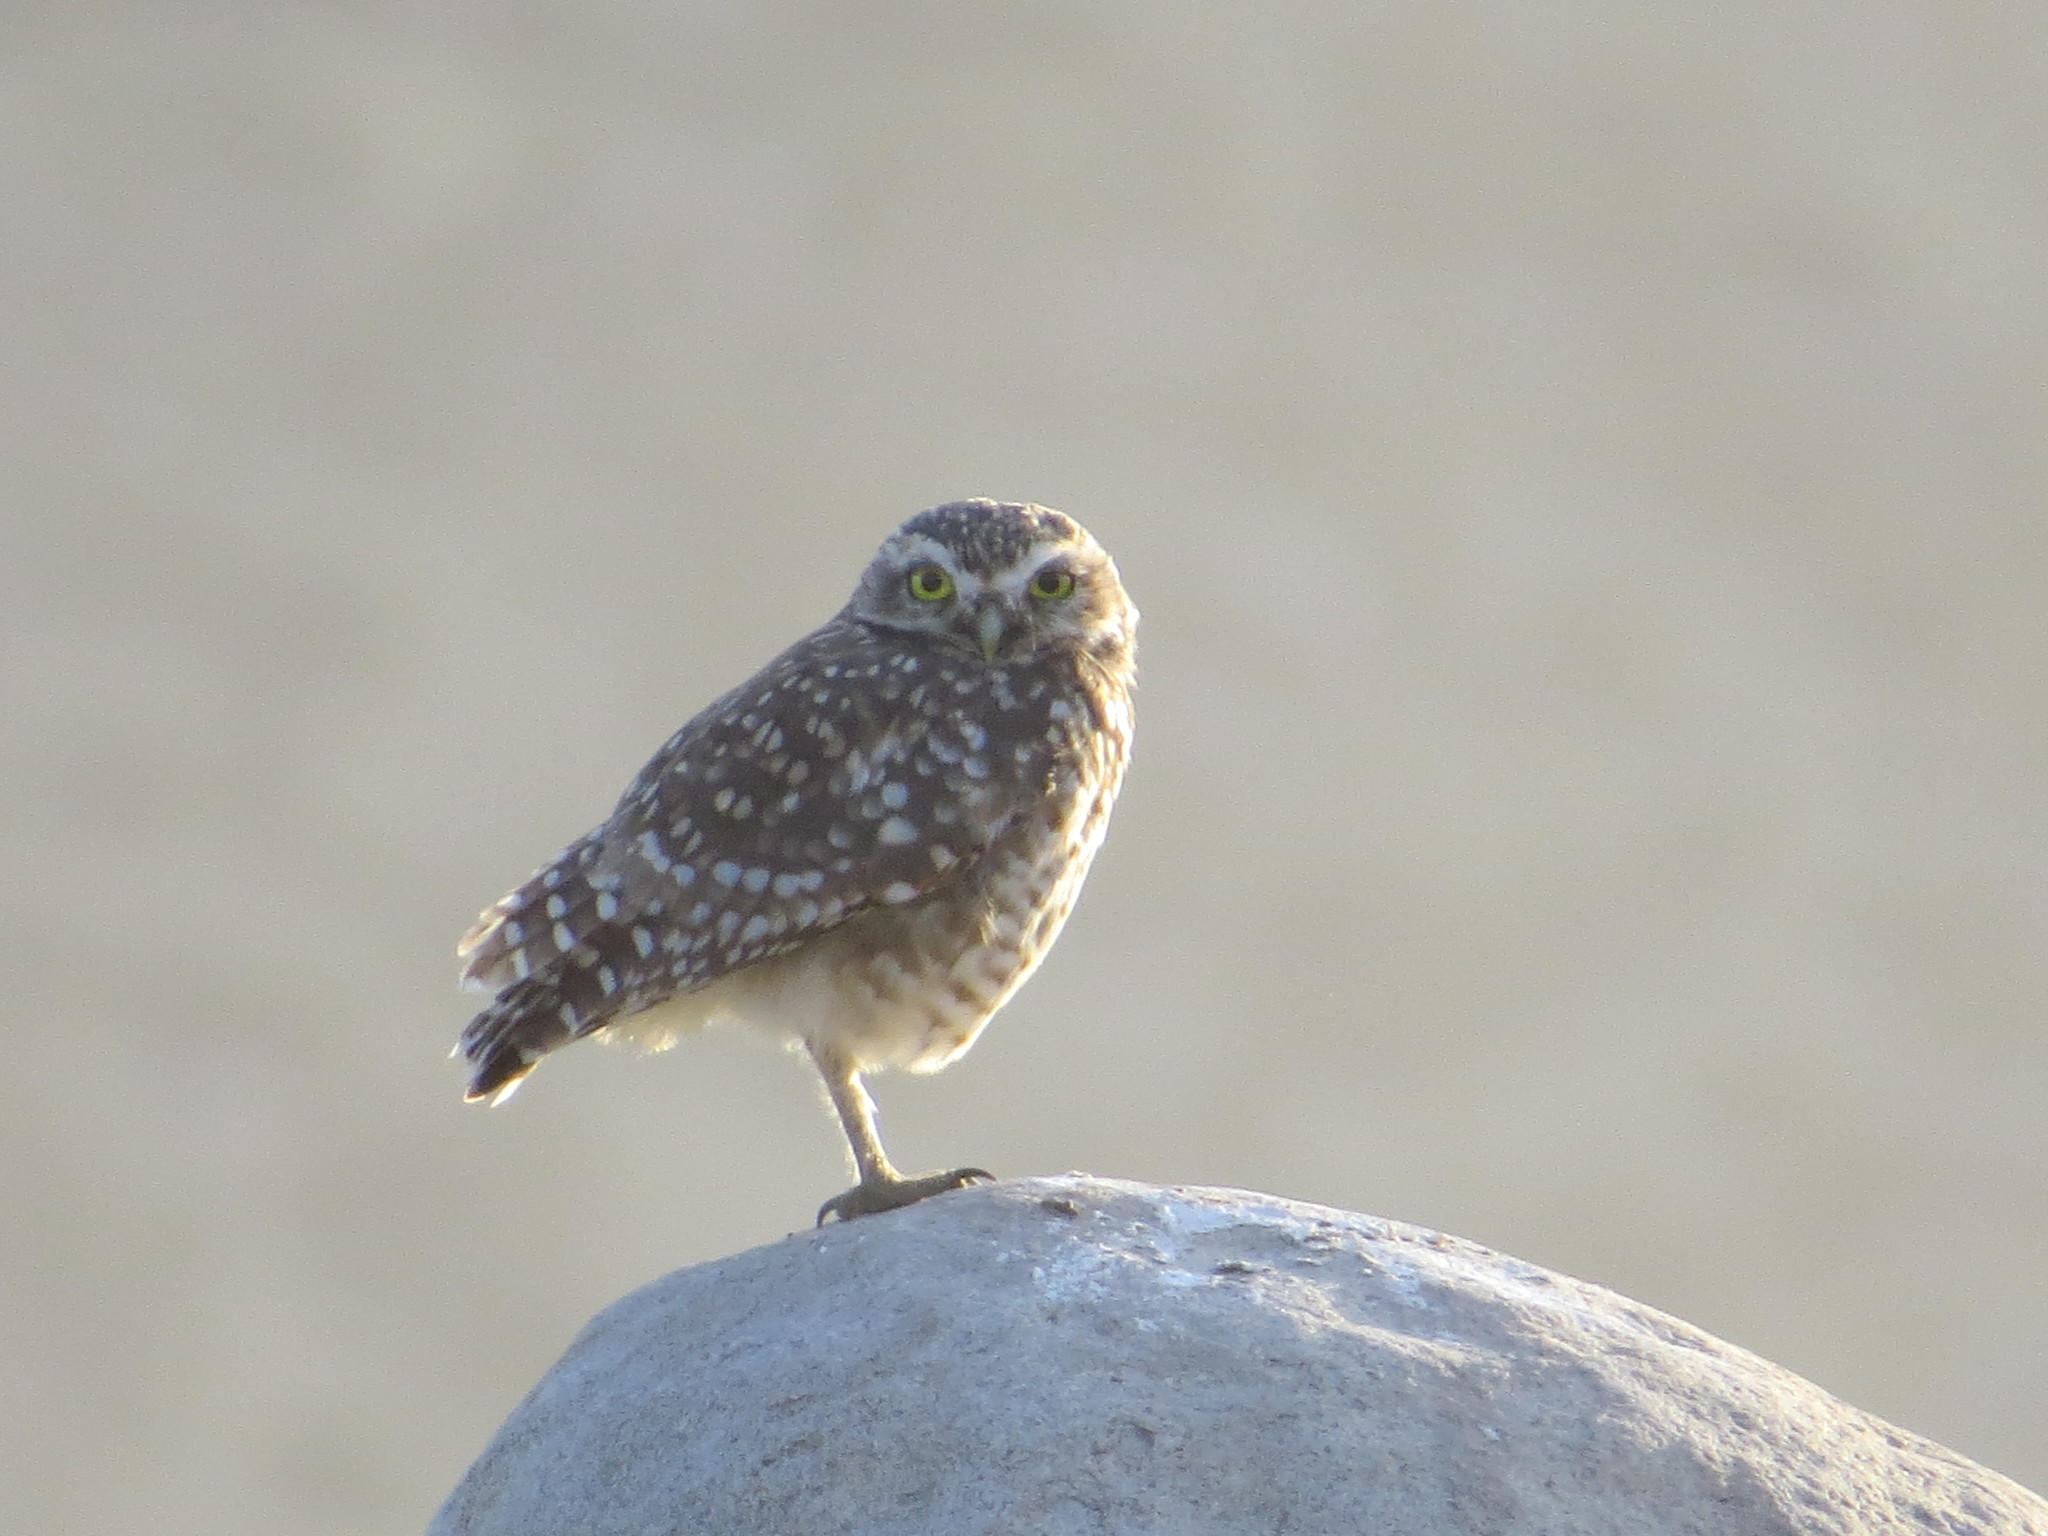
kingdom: Animalia
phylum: Chordata
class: Aves
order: Strigiformes
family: Strigidae
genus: Athene
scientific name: Athene cunicularia
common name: Burrowing owl
